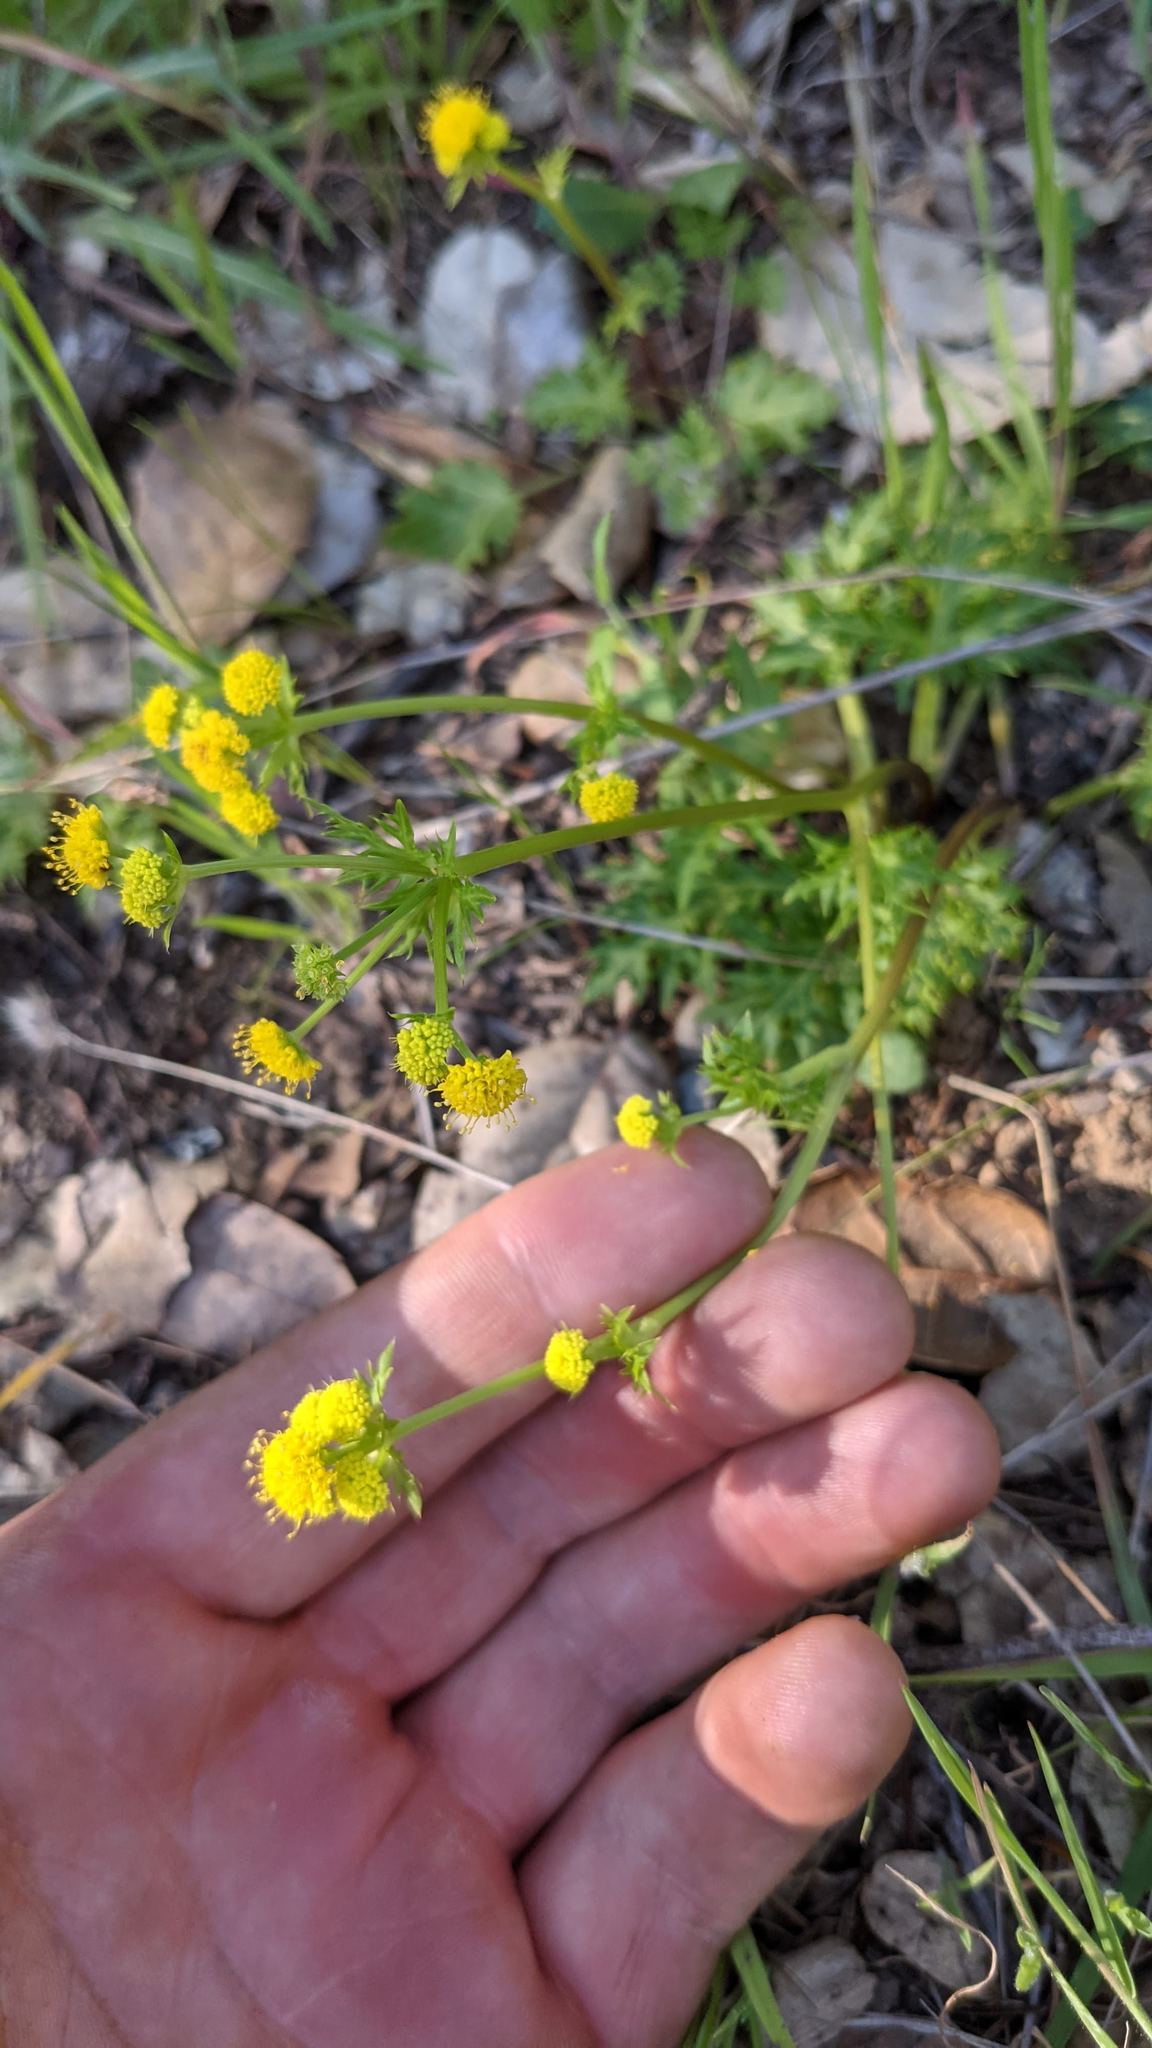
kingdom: Plantae
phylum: Tracheophyta
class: Magnoliopsida
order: Apiales
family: Apiaceae
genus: Sanicula
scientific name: Sanicula laciniata
